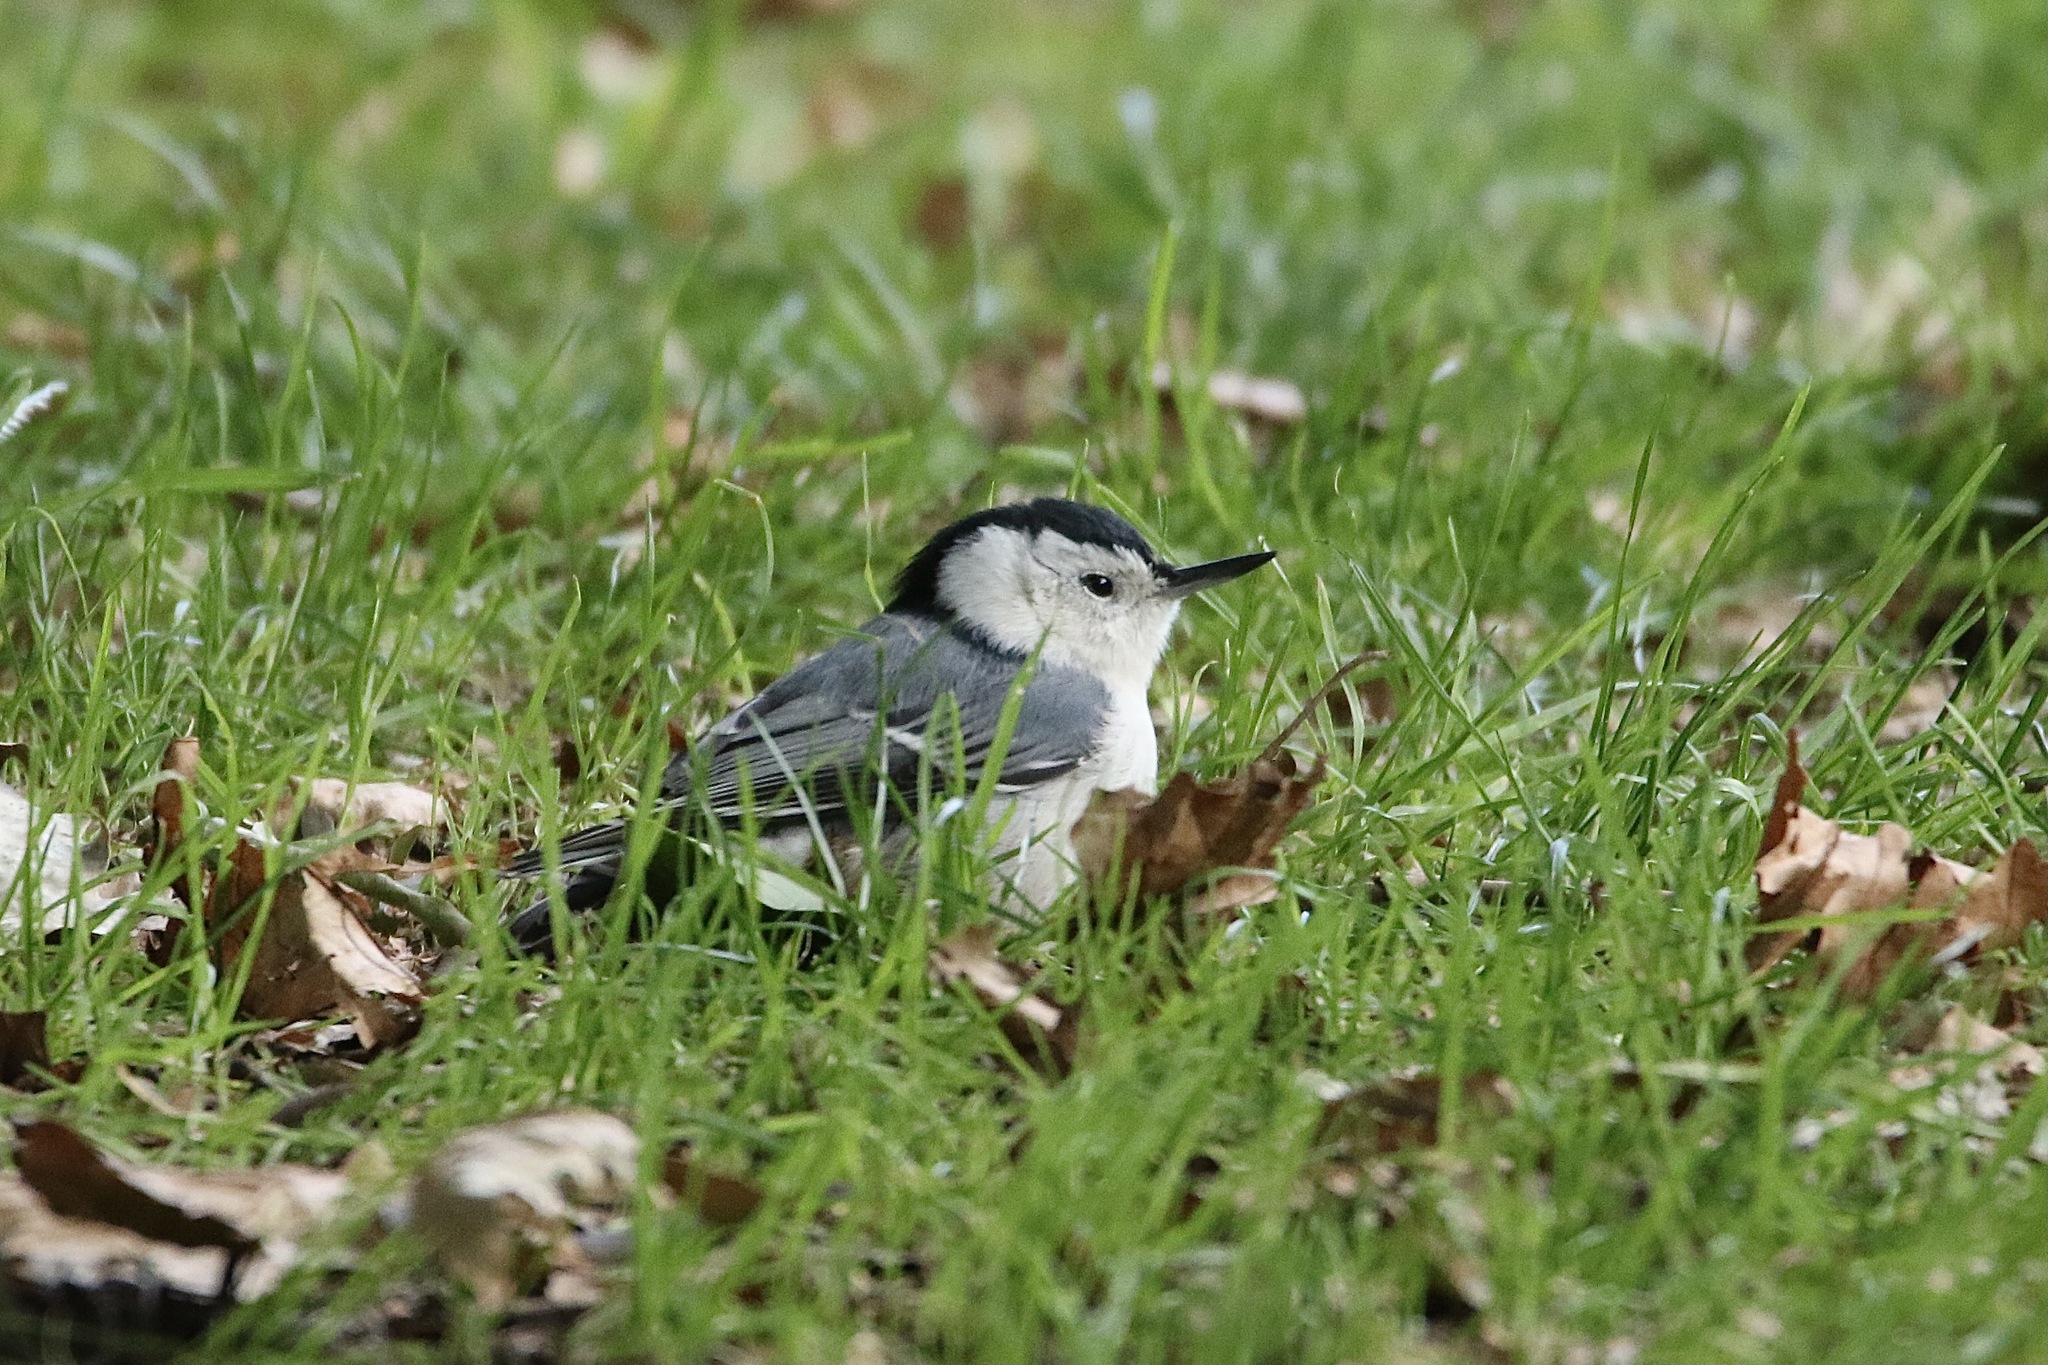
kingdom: Animalia
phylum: Chordata
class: Aves
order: Passeriformes
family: Sittidae
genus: Sitta
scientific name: Sitta carolinensis
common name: White-breasted nuthatch
